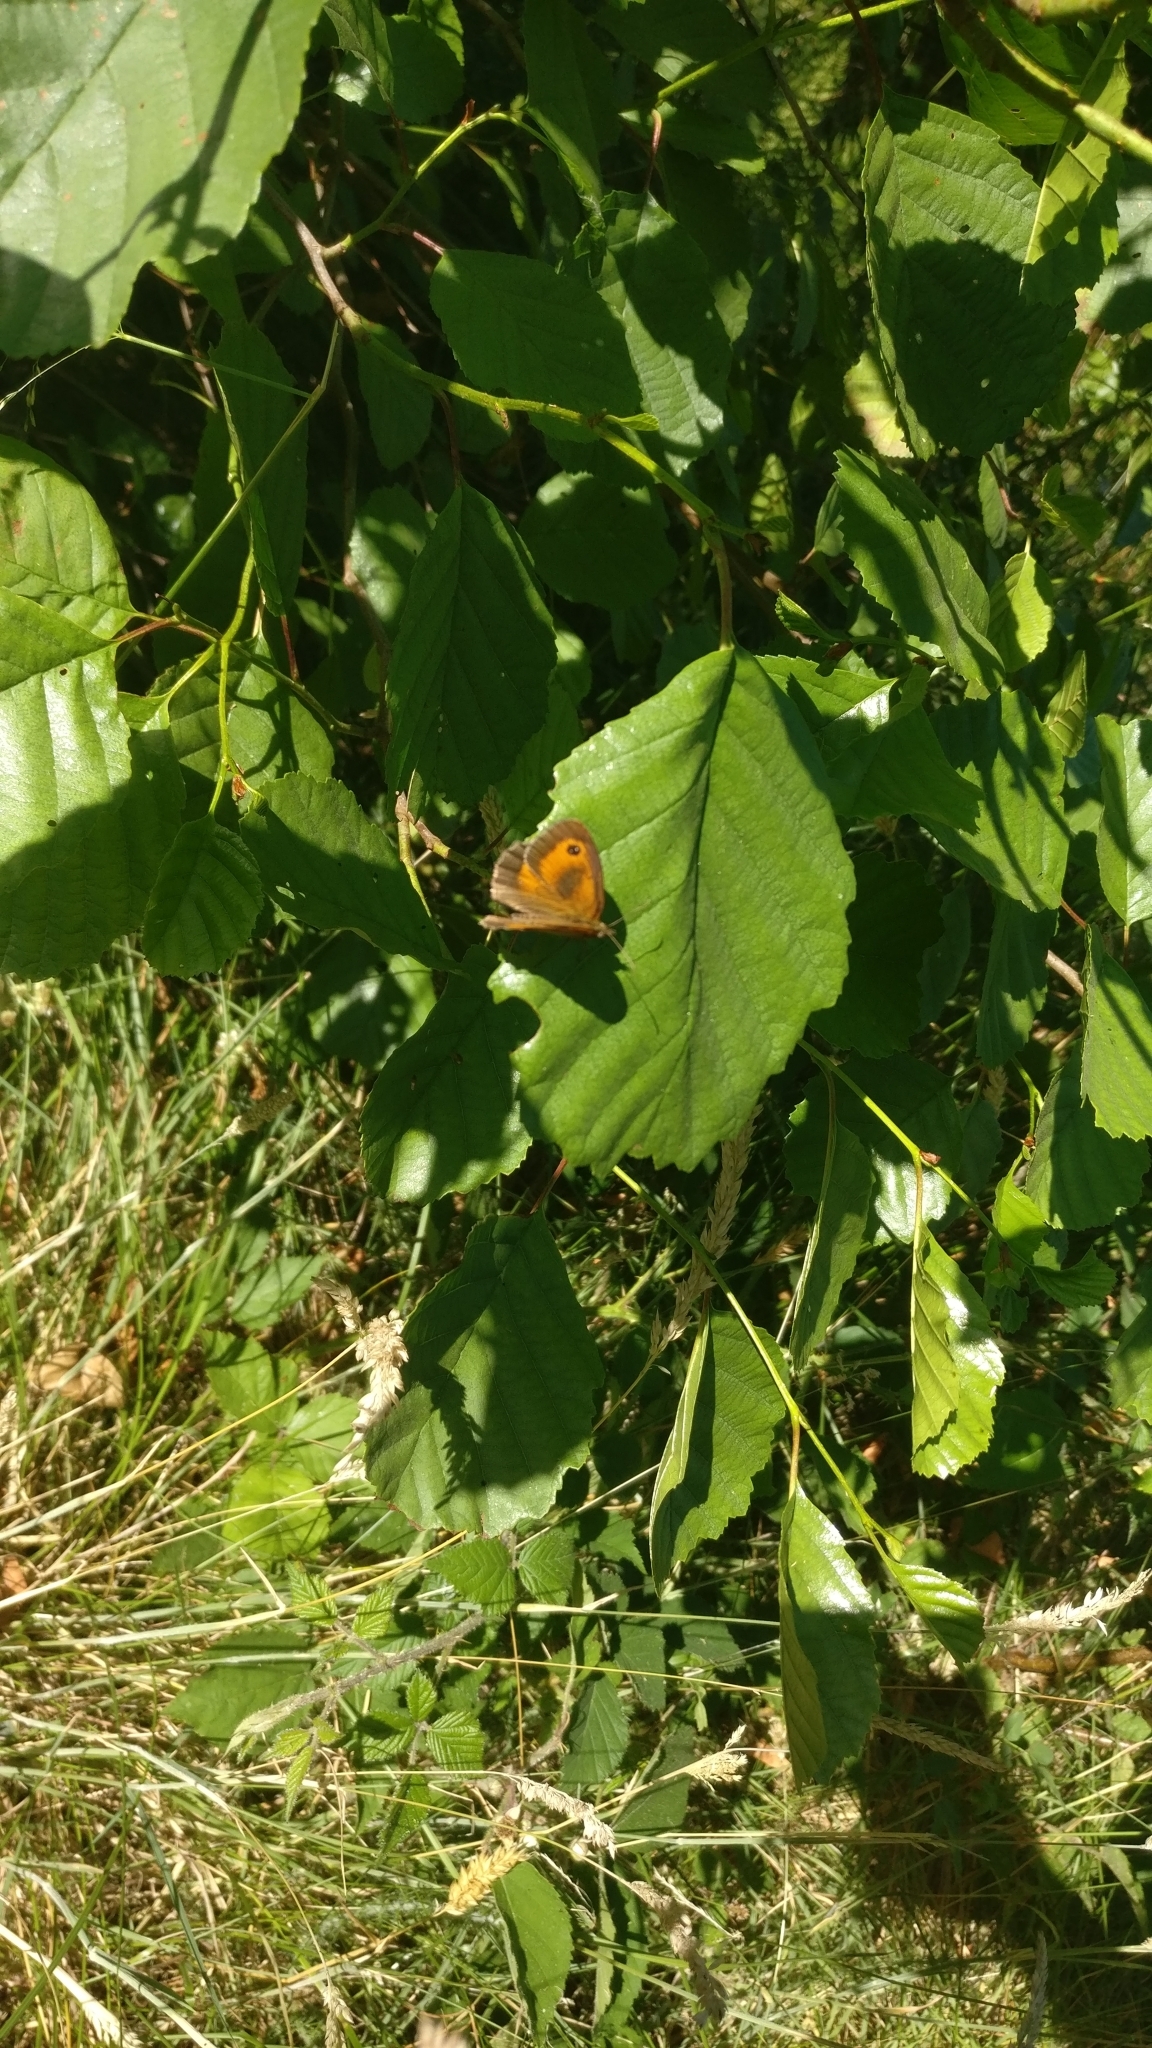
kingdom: Animalia
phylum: Arthropoda
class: Insecta
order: Lepidoptera
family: Nymphalidae
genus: Pyronia
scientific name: Pyronia tithonus
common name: Gatekeeper
